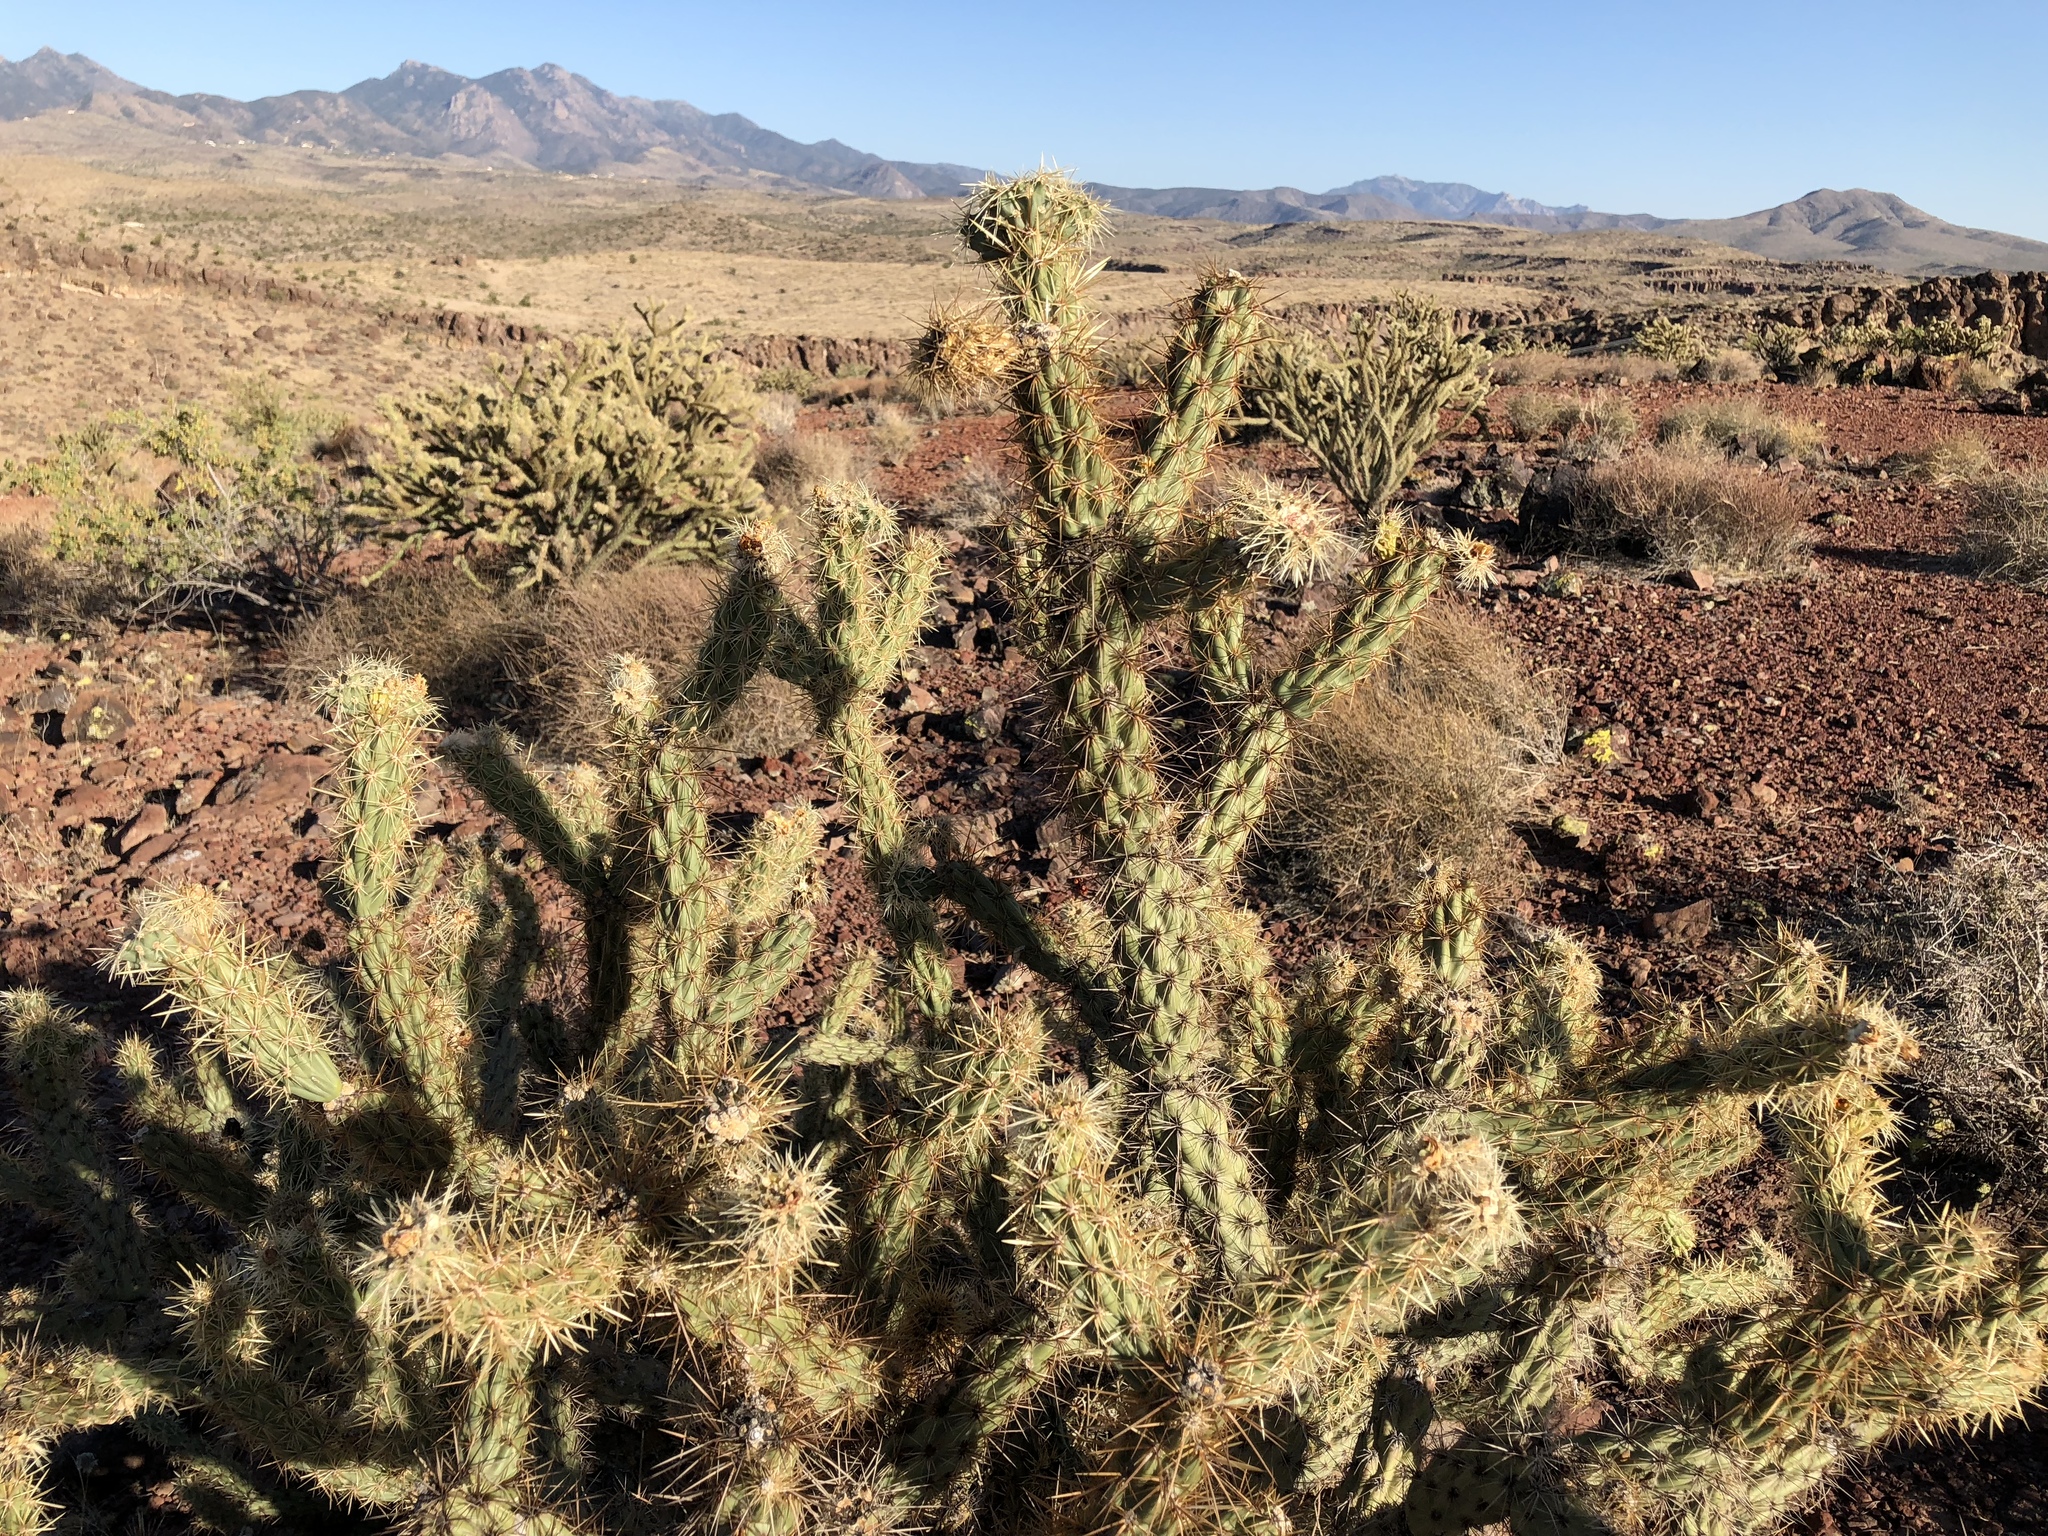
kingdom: Plantae
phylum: Tracheophyta
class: Magnoliopsida
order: Caryophyllales
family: Cactaceae
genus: Cylindropuntia
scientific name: Cylindropuntia acanthocarpa
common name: Buckhorn cholla
